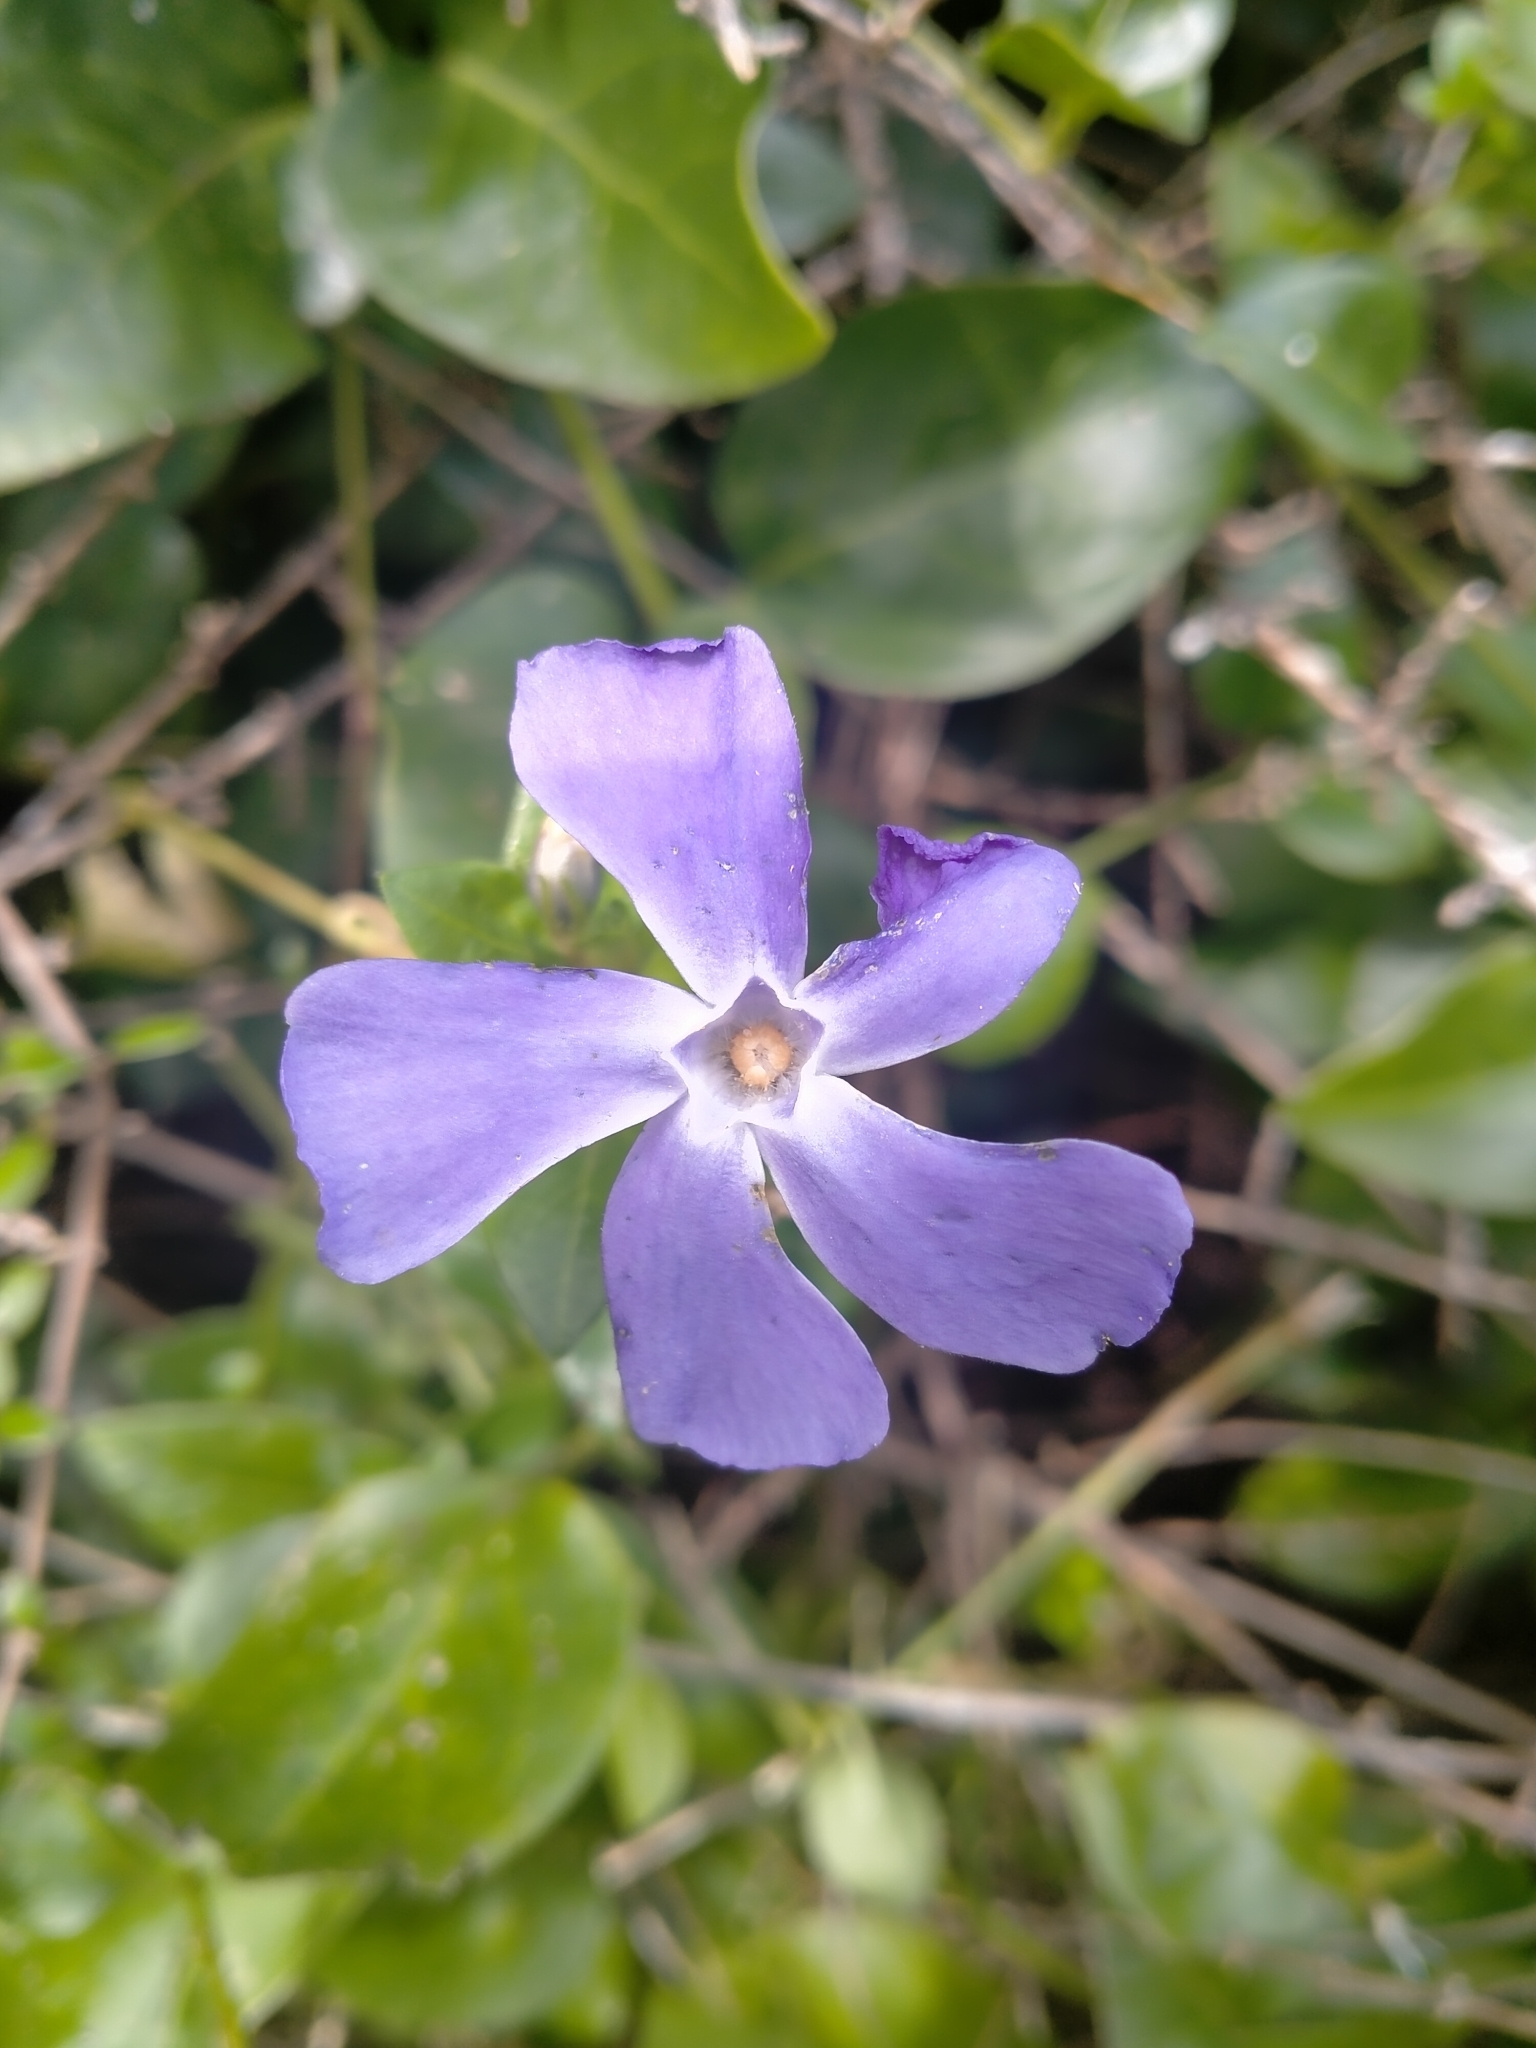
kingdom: Plantae
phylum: Tracheophyta
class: Magnoliopsida
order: Gentianales
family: Apocynaceae
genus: Vinca
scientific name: Vinca major
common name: Greater periwinkle
